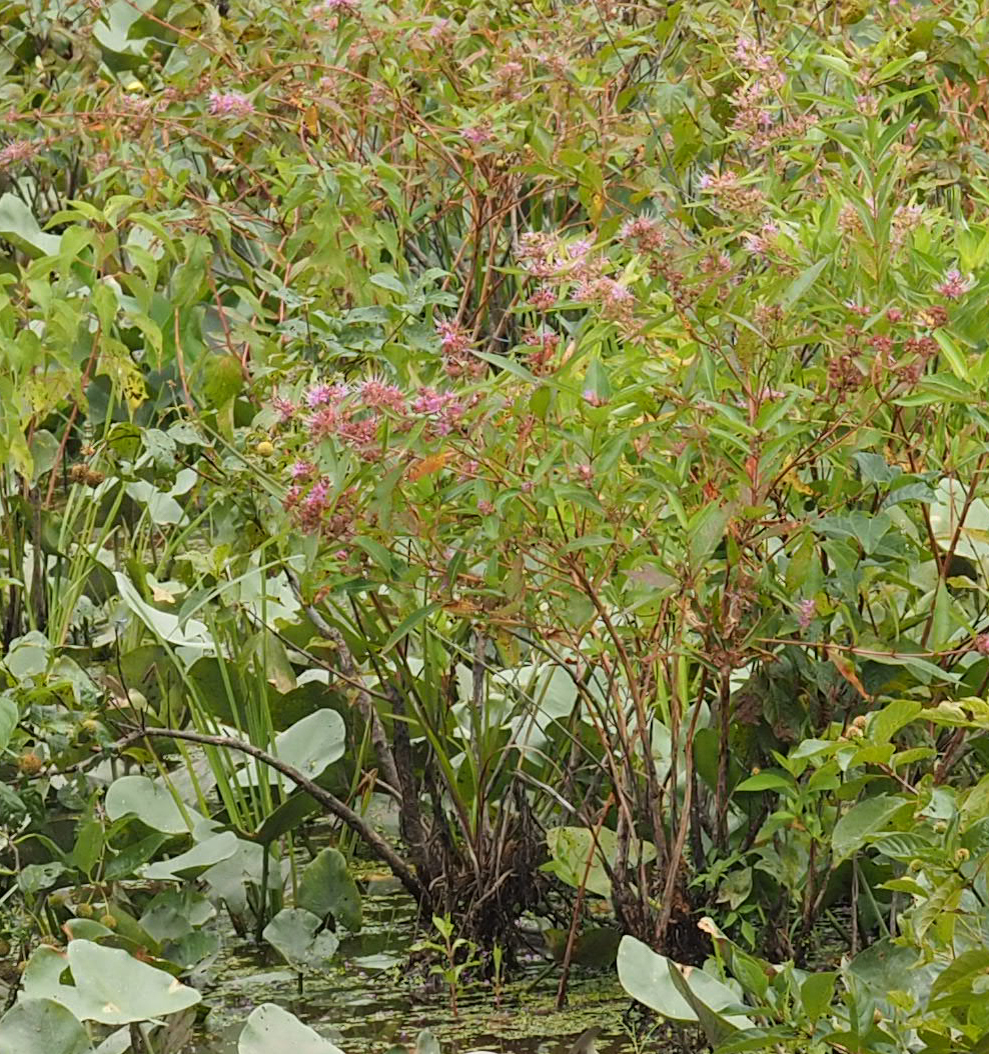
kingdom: Plantae
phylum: Tracheophyta
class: Magnoliopsida
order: Myrtales
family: Lythraceae
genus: Decodon
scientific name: Decodon verticillatus
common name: Hairy swamp loosestrife
